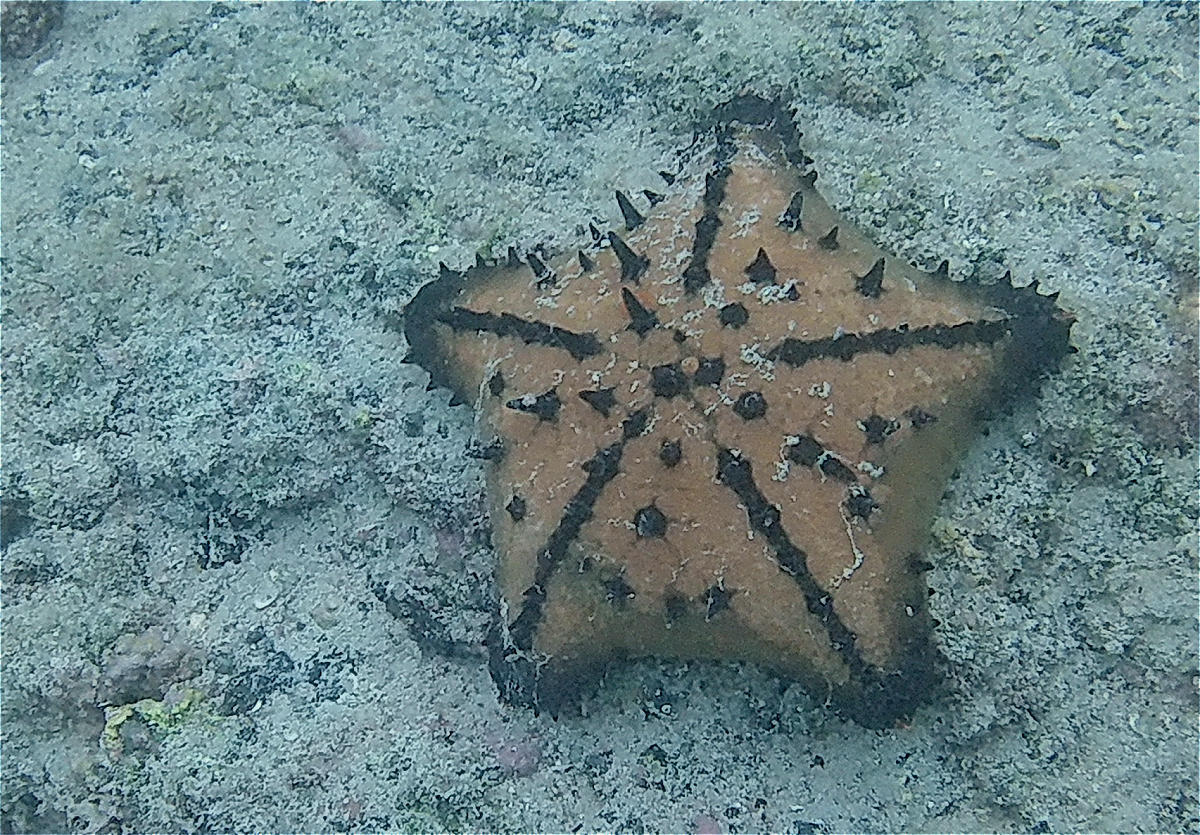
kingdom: Animalia
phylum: Echinodermata
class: Asteroidea
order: Valvatida
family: Oreasteridae
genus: Nidorellia
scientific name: Nidorellia armata
